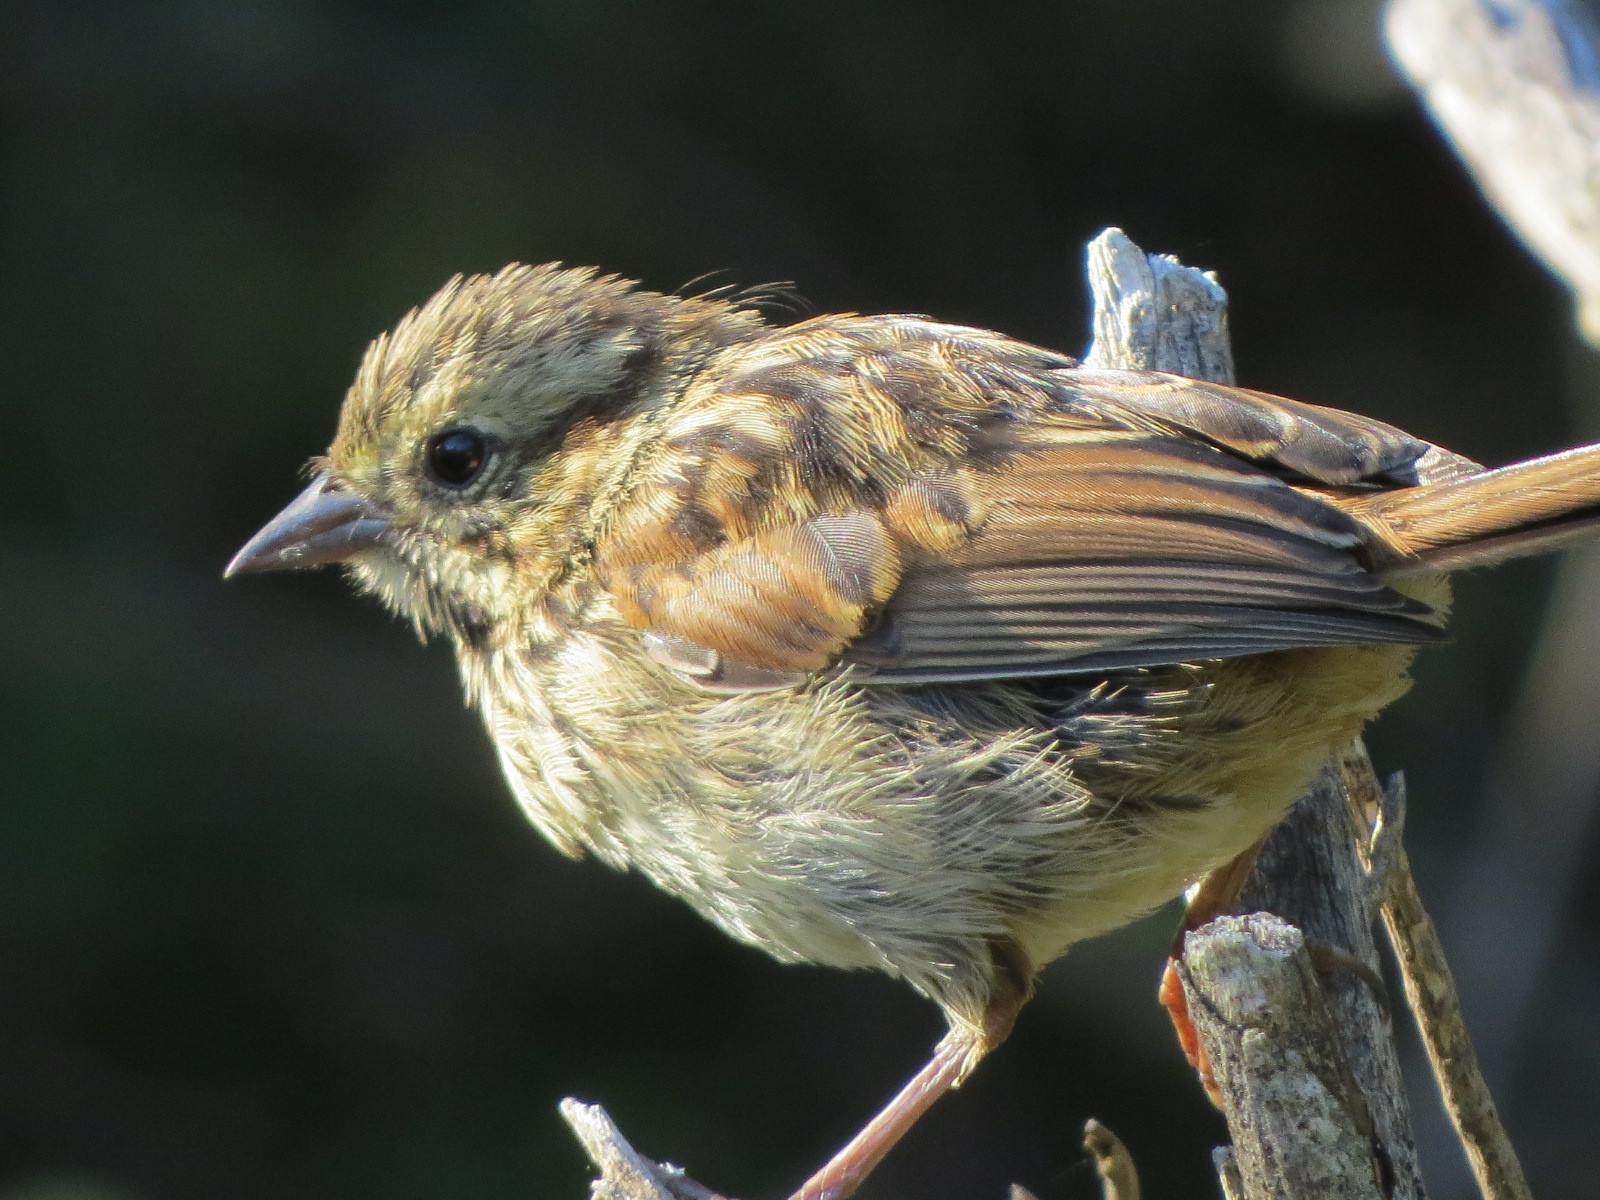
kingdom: Animalia
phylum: Chordata
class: Aves
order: Passeriformes
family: Passerellidae
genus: Melospiza
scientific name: Melospiza melodia
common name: Song sparrow
